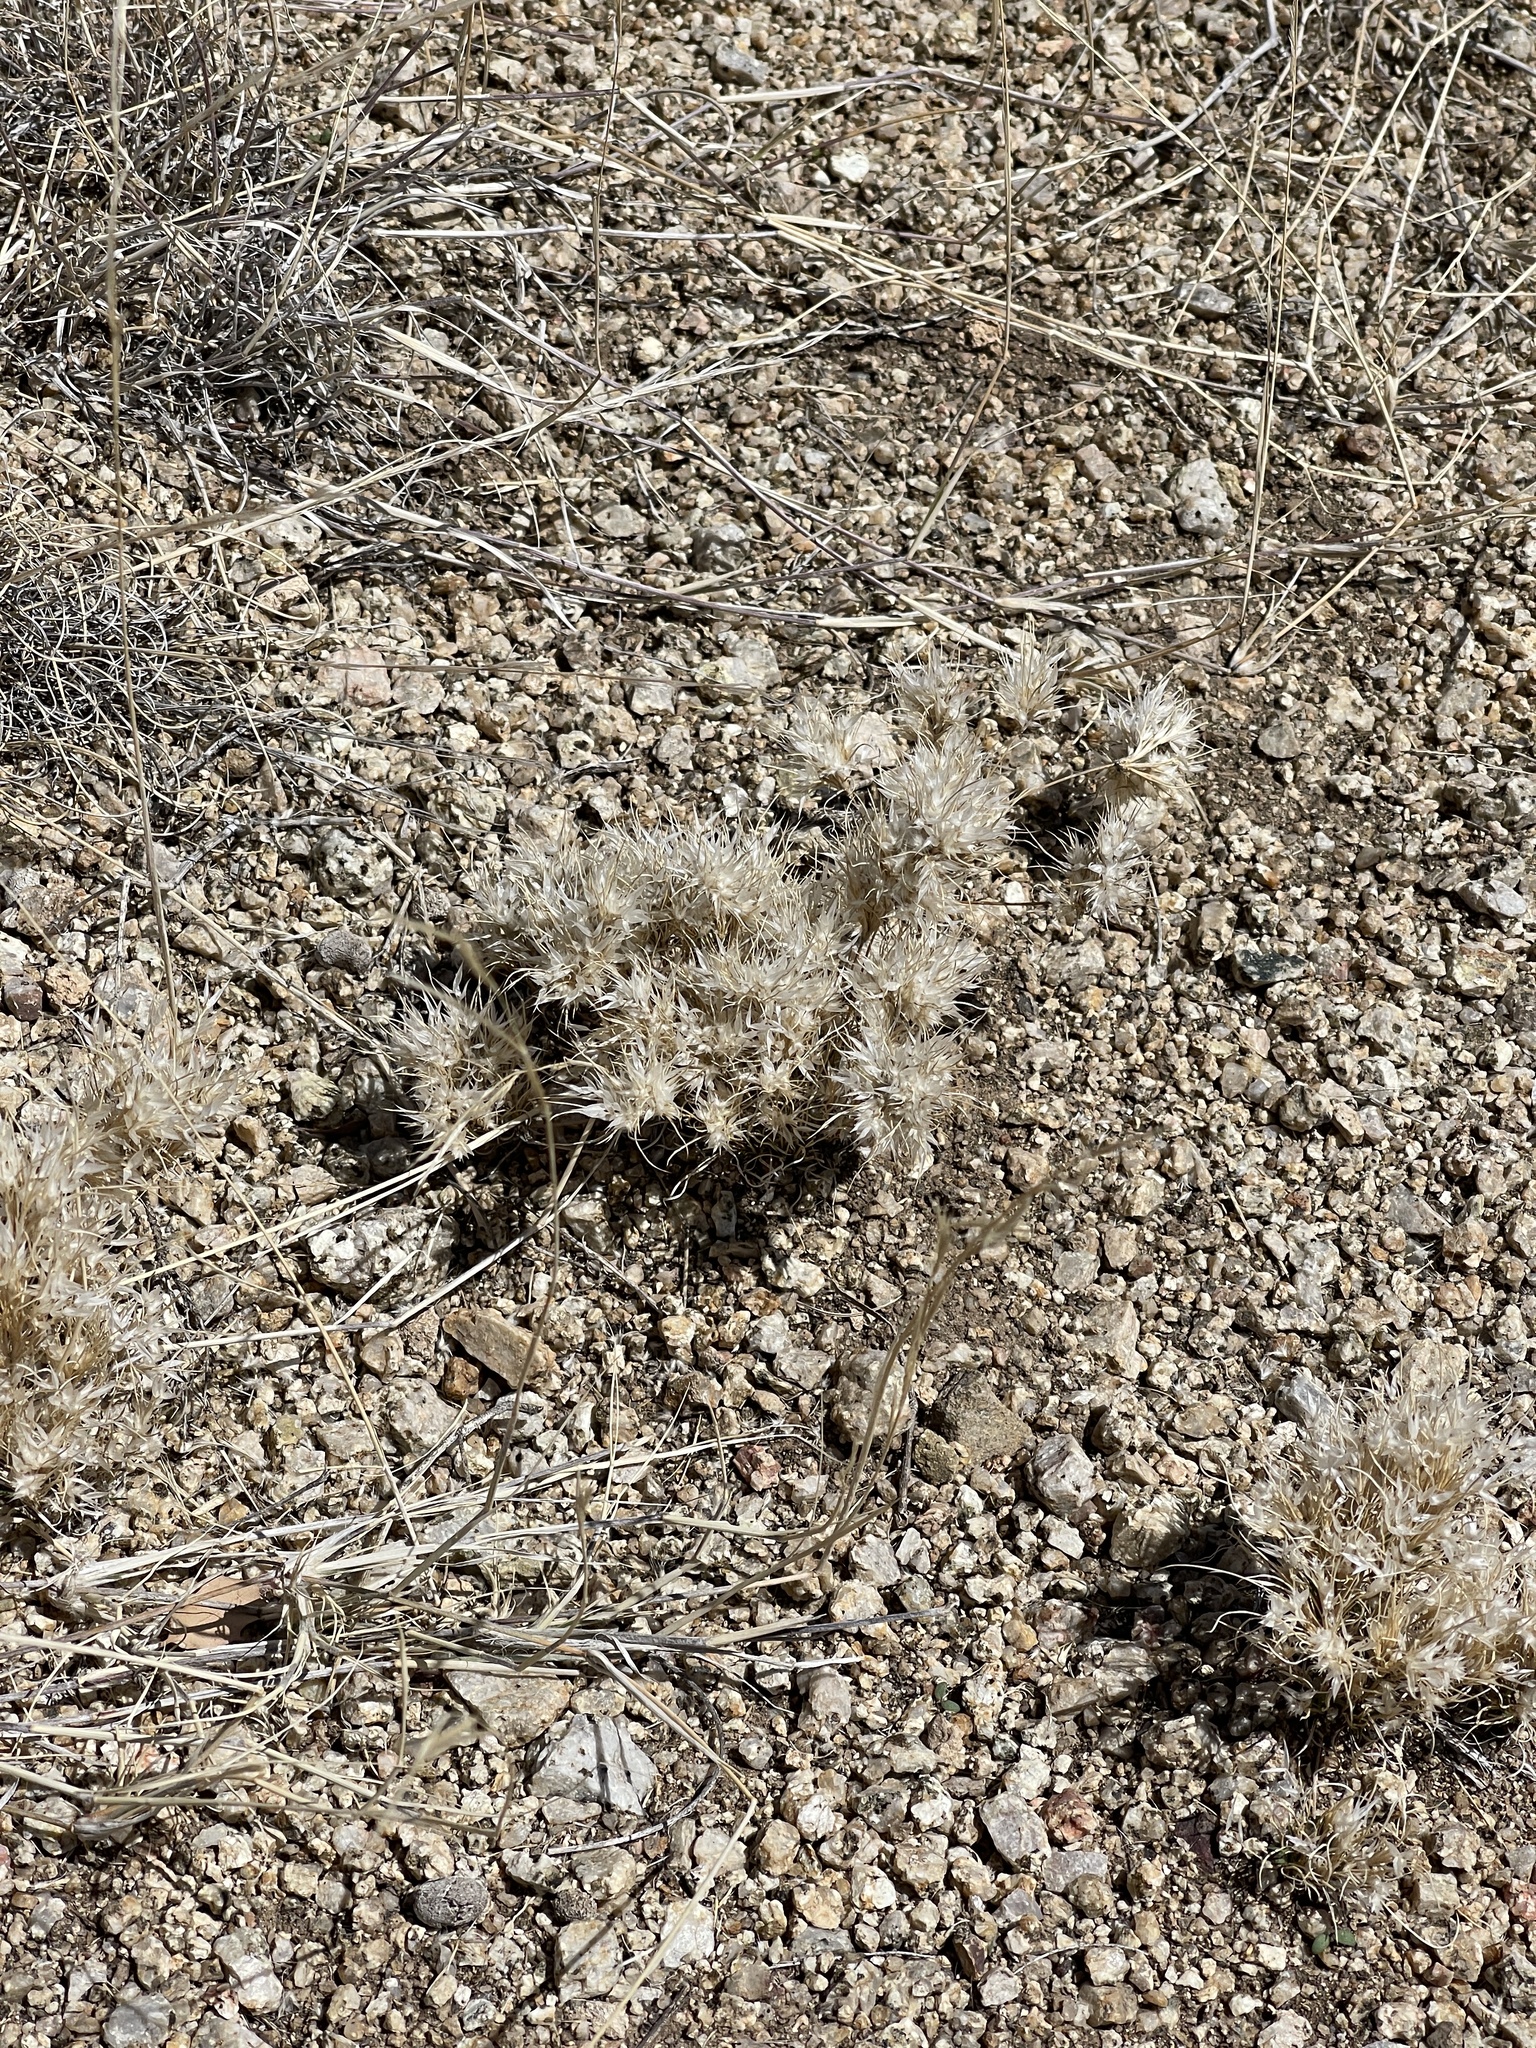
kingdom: Plantae
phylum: Tracheophyta
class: Liliopsida
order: Poales
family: Poaceae
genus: Dasyochloa
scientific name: Dasyochloa pulchella
